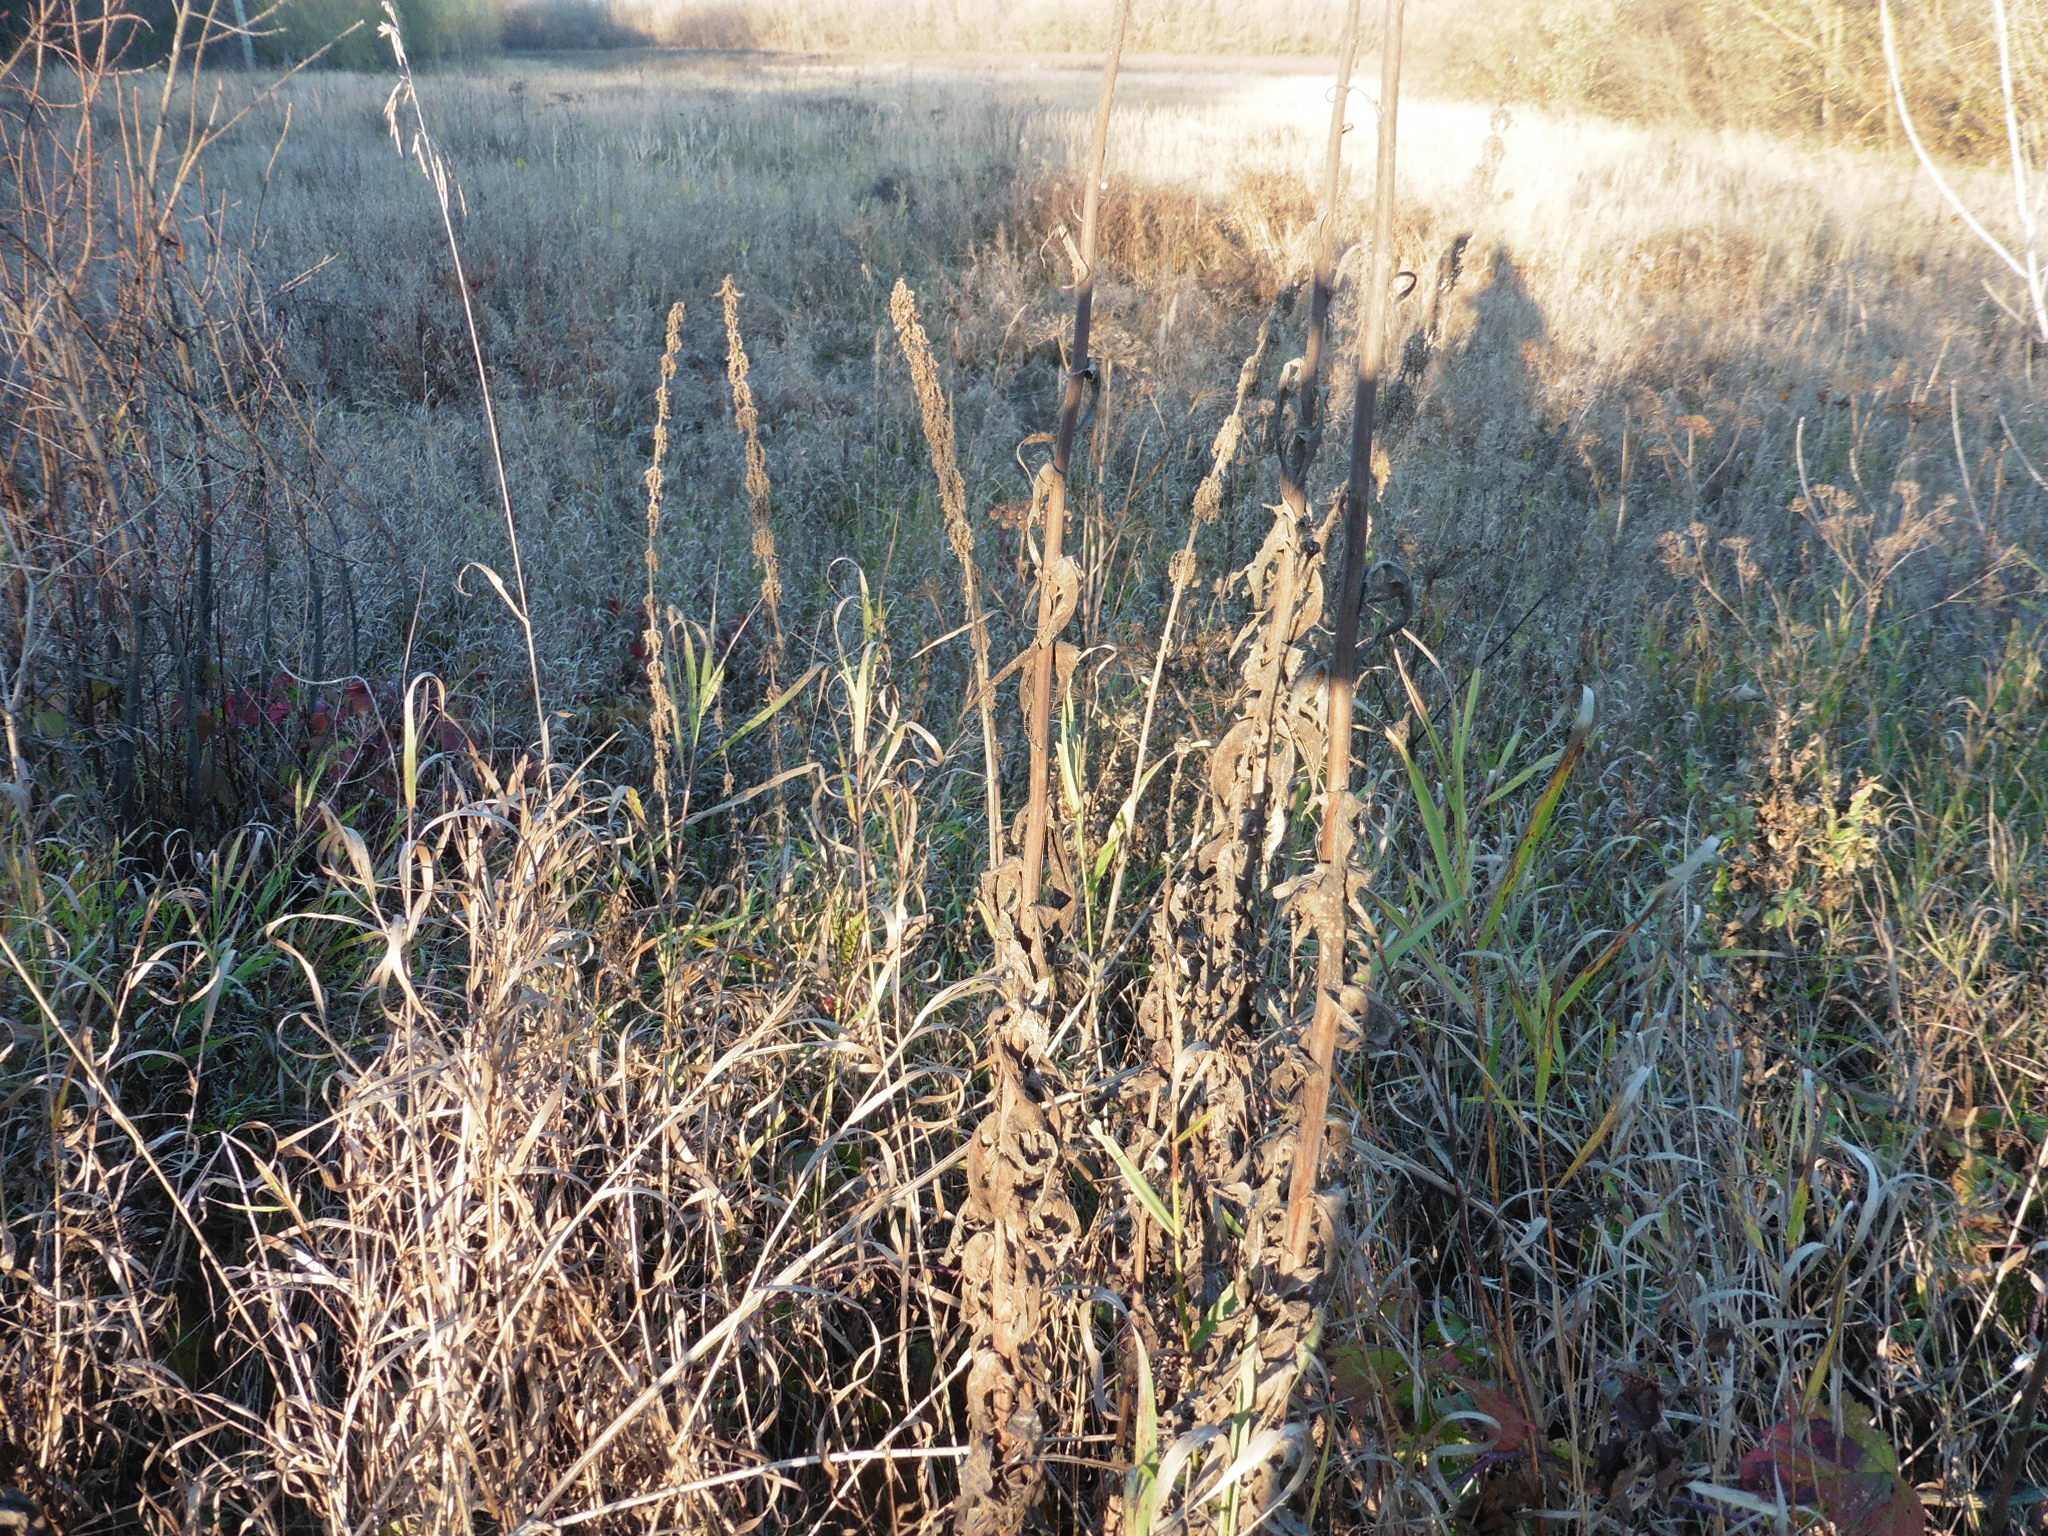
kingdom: Plantae
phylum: Tracheophyta
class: Magnoliopsida
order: Lamiales
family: Lamiaceae
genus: Leonurus
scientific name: Leonurus quinquelobatus
